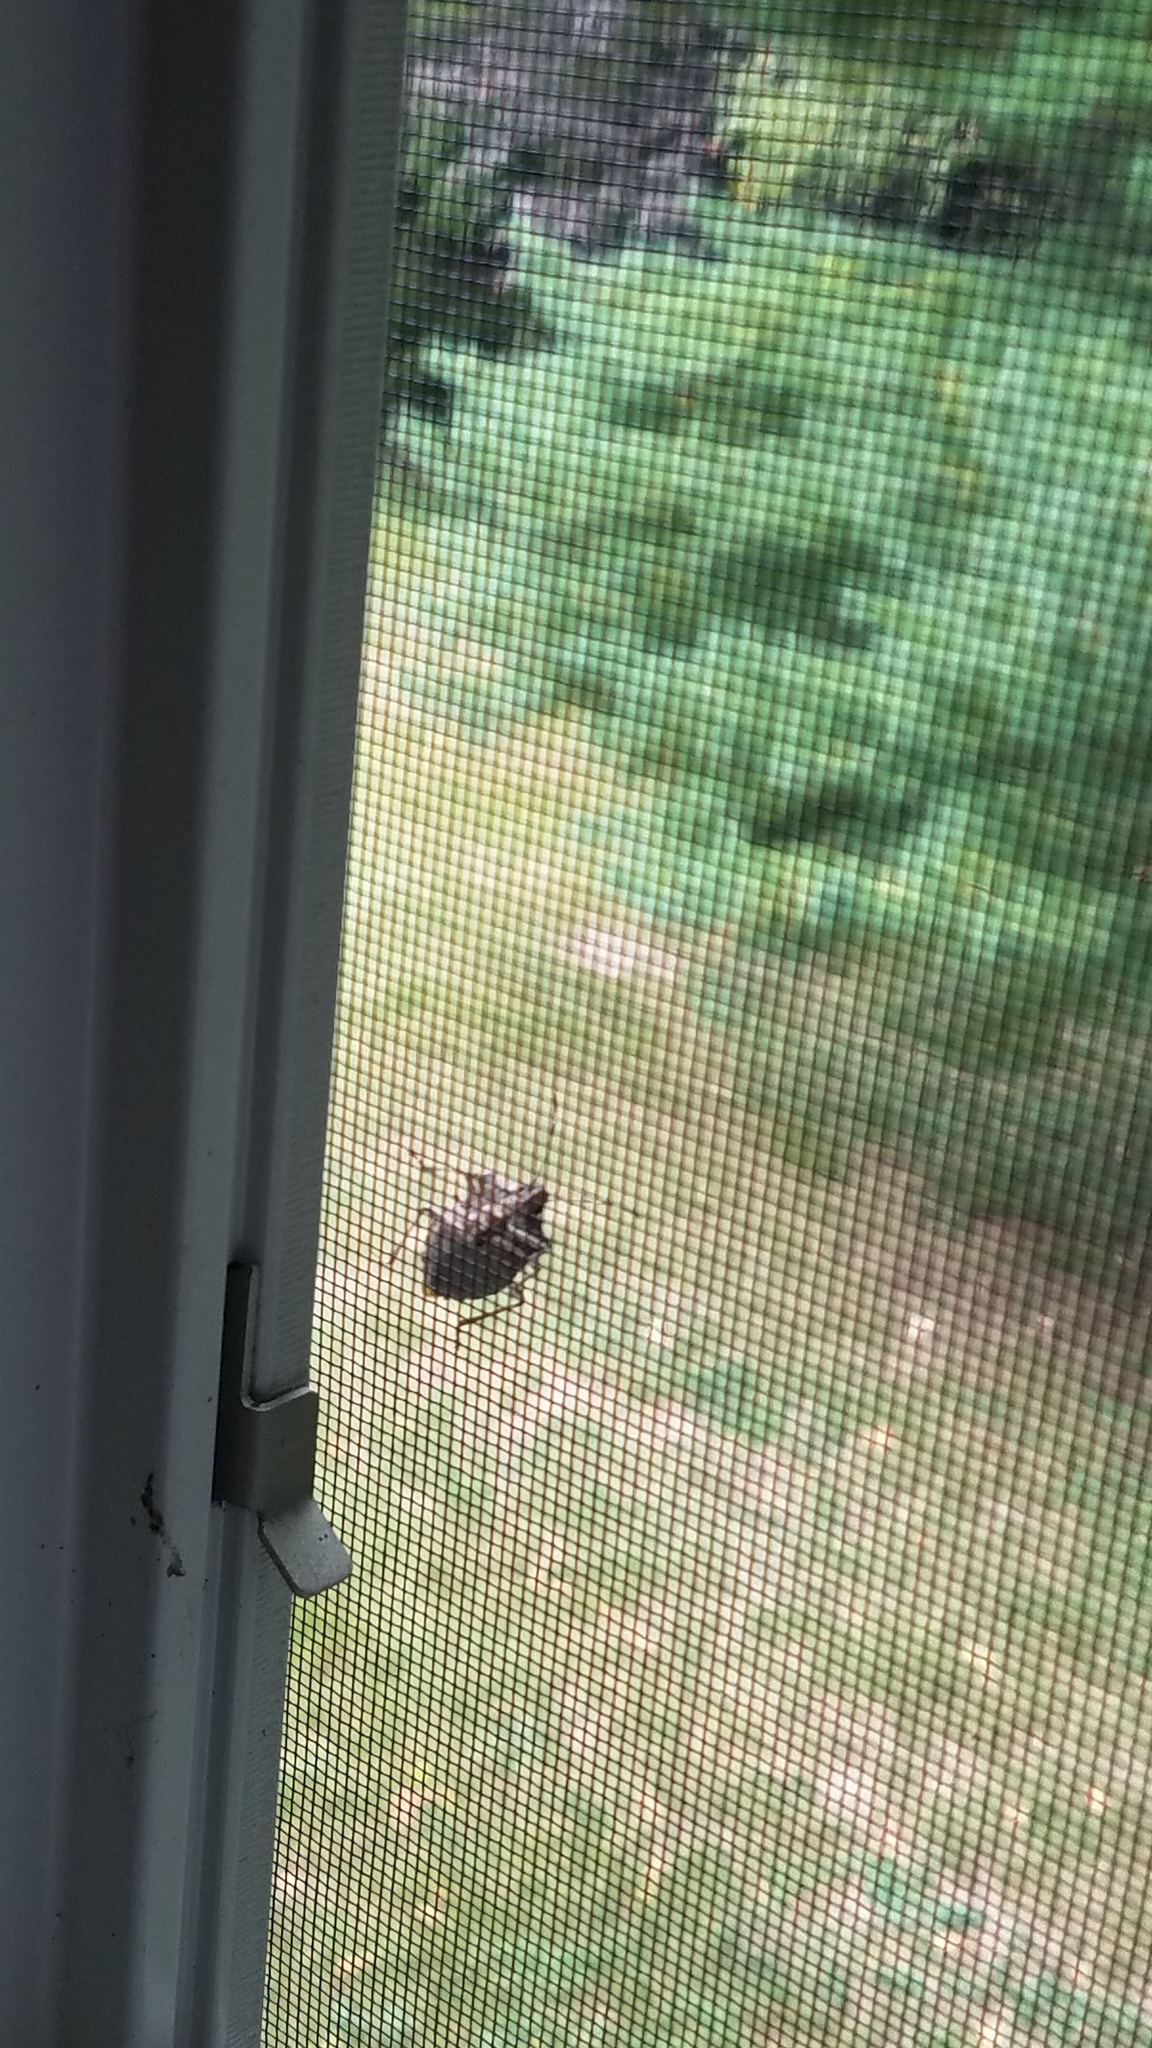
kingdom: Animalia
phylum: Arthropoda
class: Insecta
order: Hemiptera
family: Pentatomidae
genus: Halyomorpha
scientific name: Halyomorpha halys
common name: Brown marmorated stink bug
